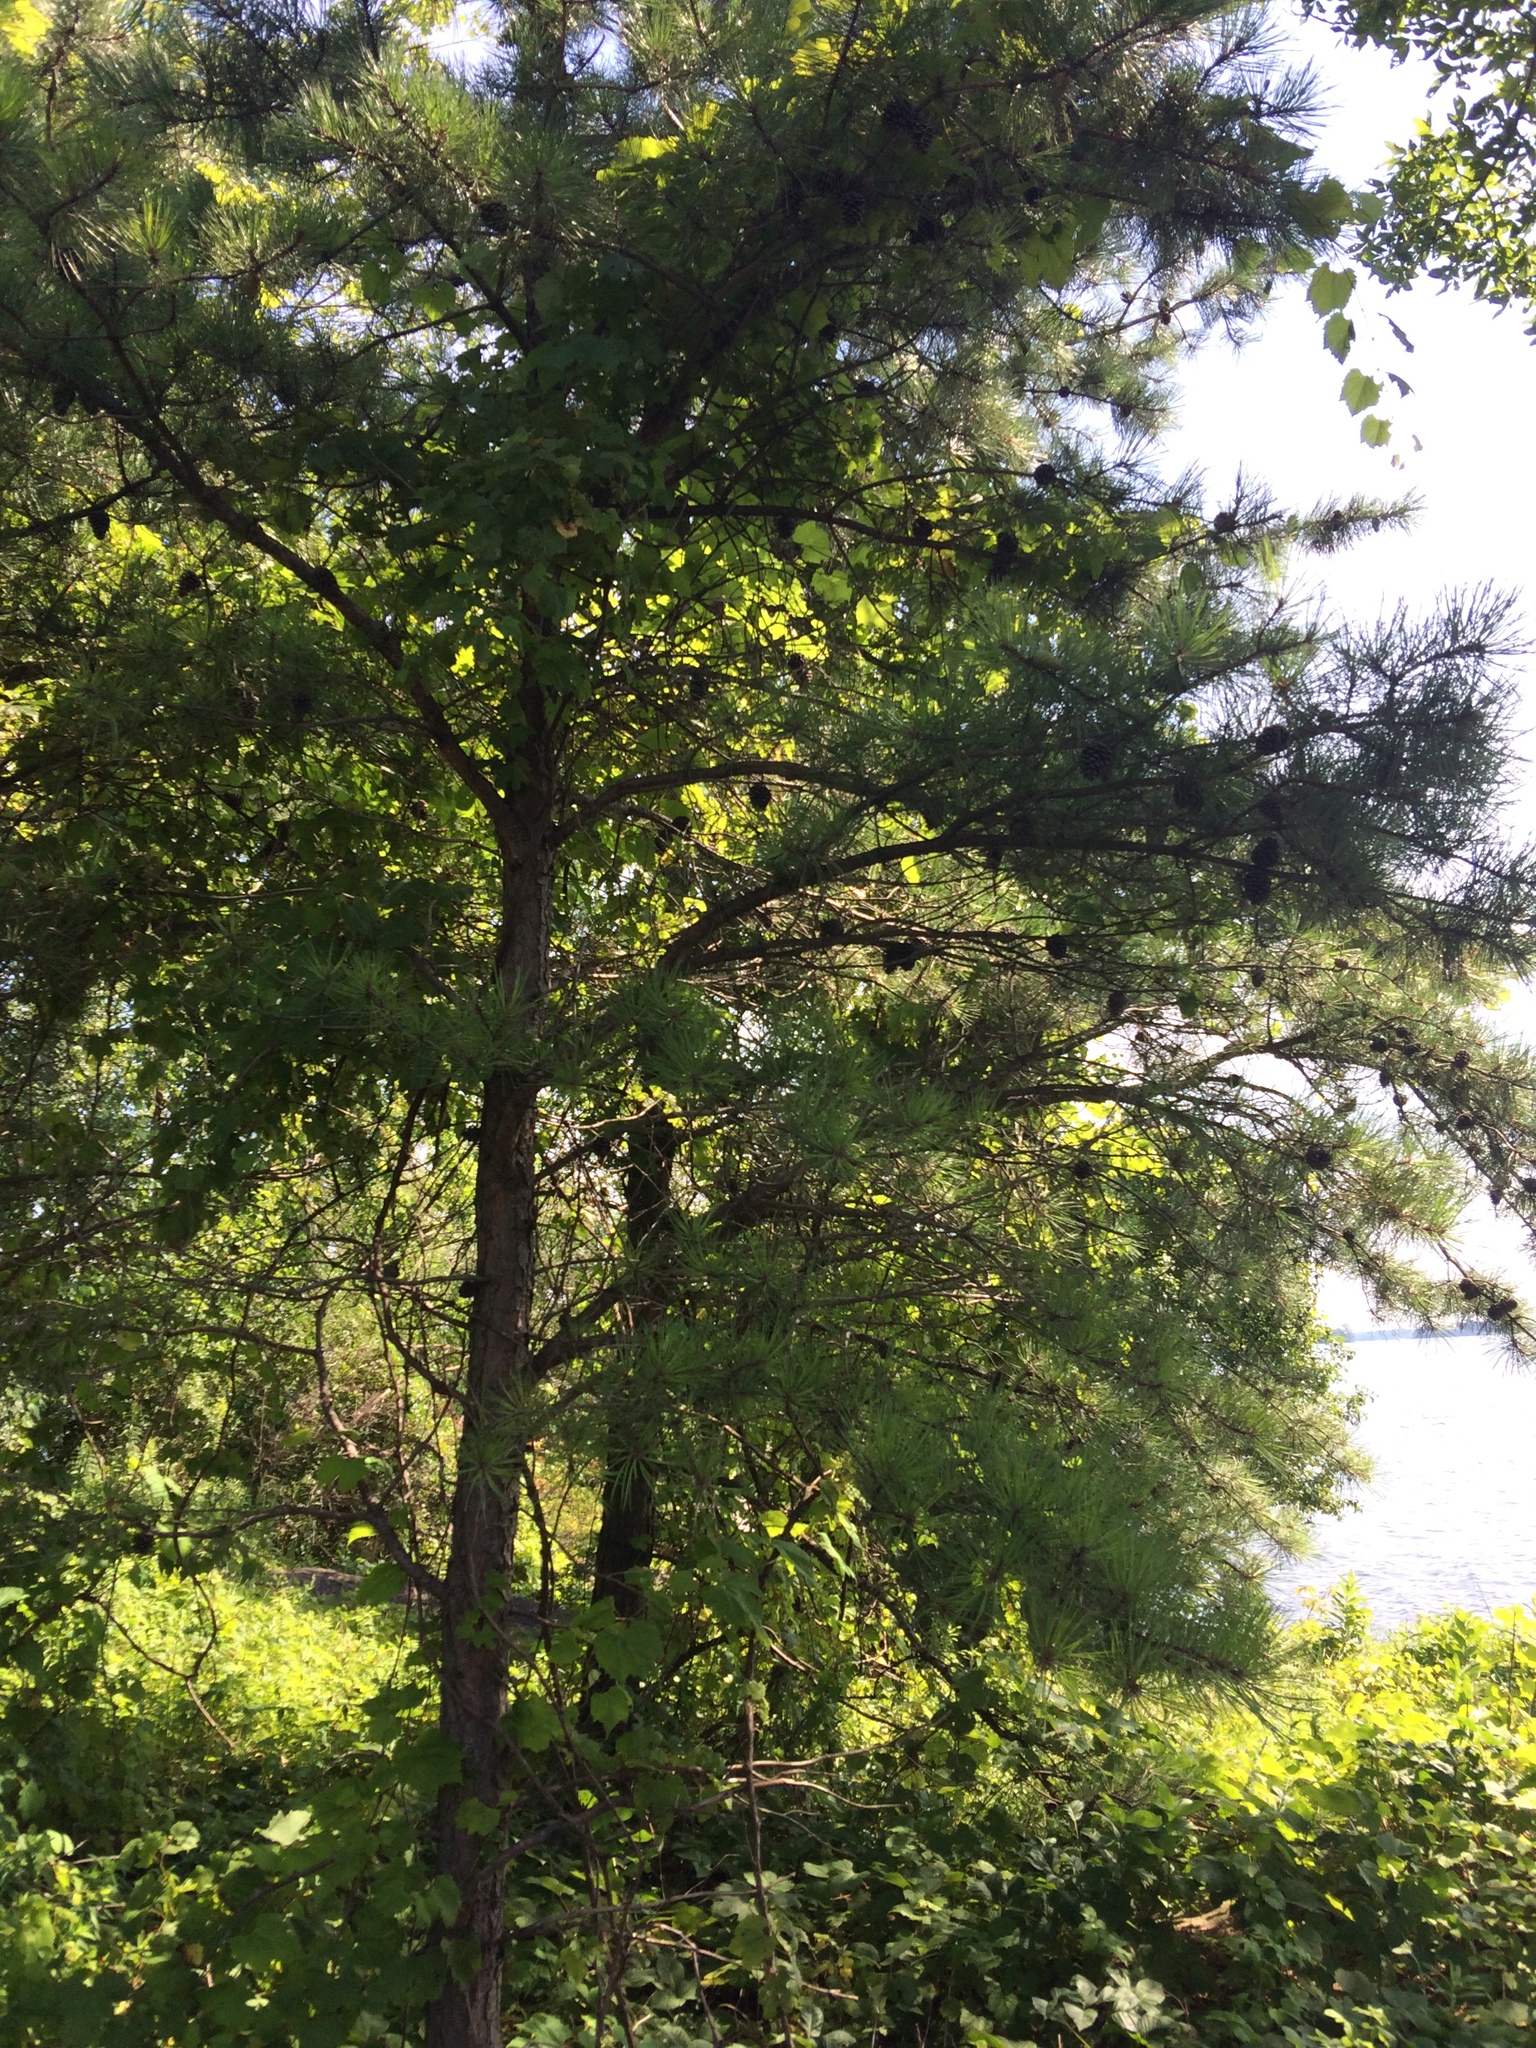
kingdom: Plantae
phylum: Tracheophyta
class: Pinopsida
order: Pinales
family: Pinaceae
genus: Pinus
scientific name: Pinus rigida
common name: Pitch pine
